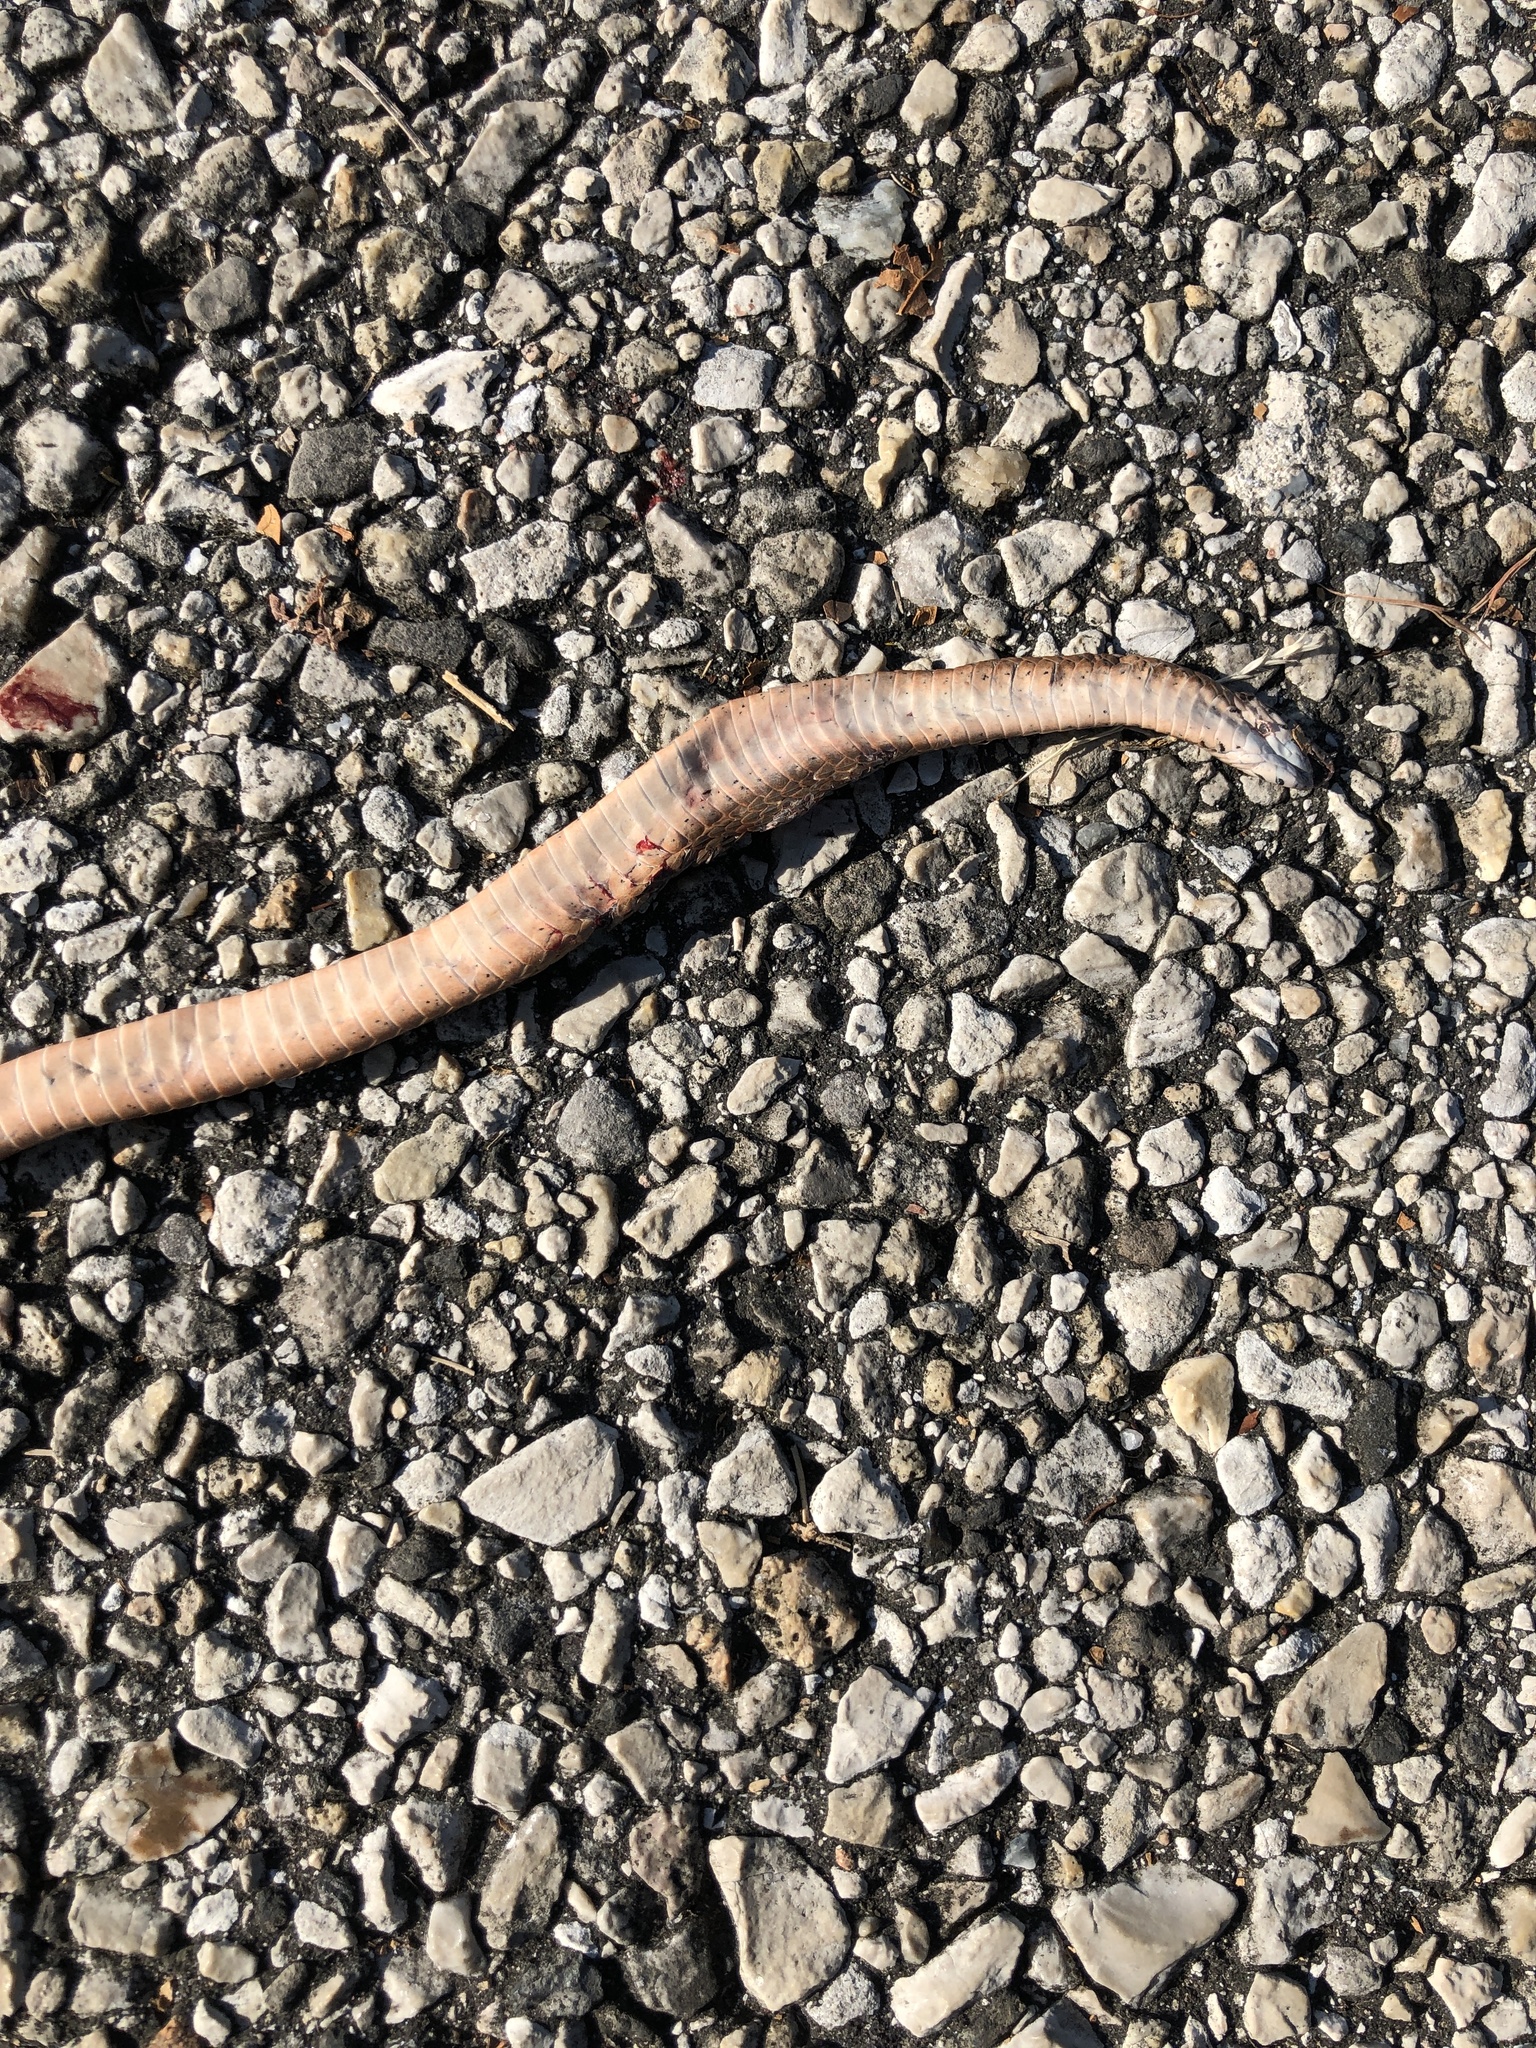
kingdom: Animalia
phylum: Chordata
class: Squamata
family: Colubridae
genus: Storeria
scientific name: Storeria dekayi
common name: (dekay’s) brown snake
